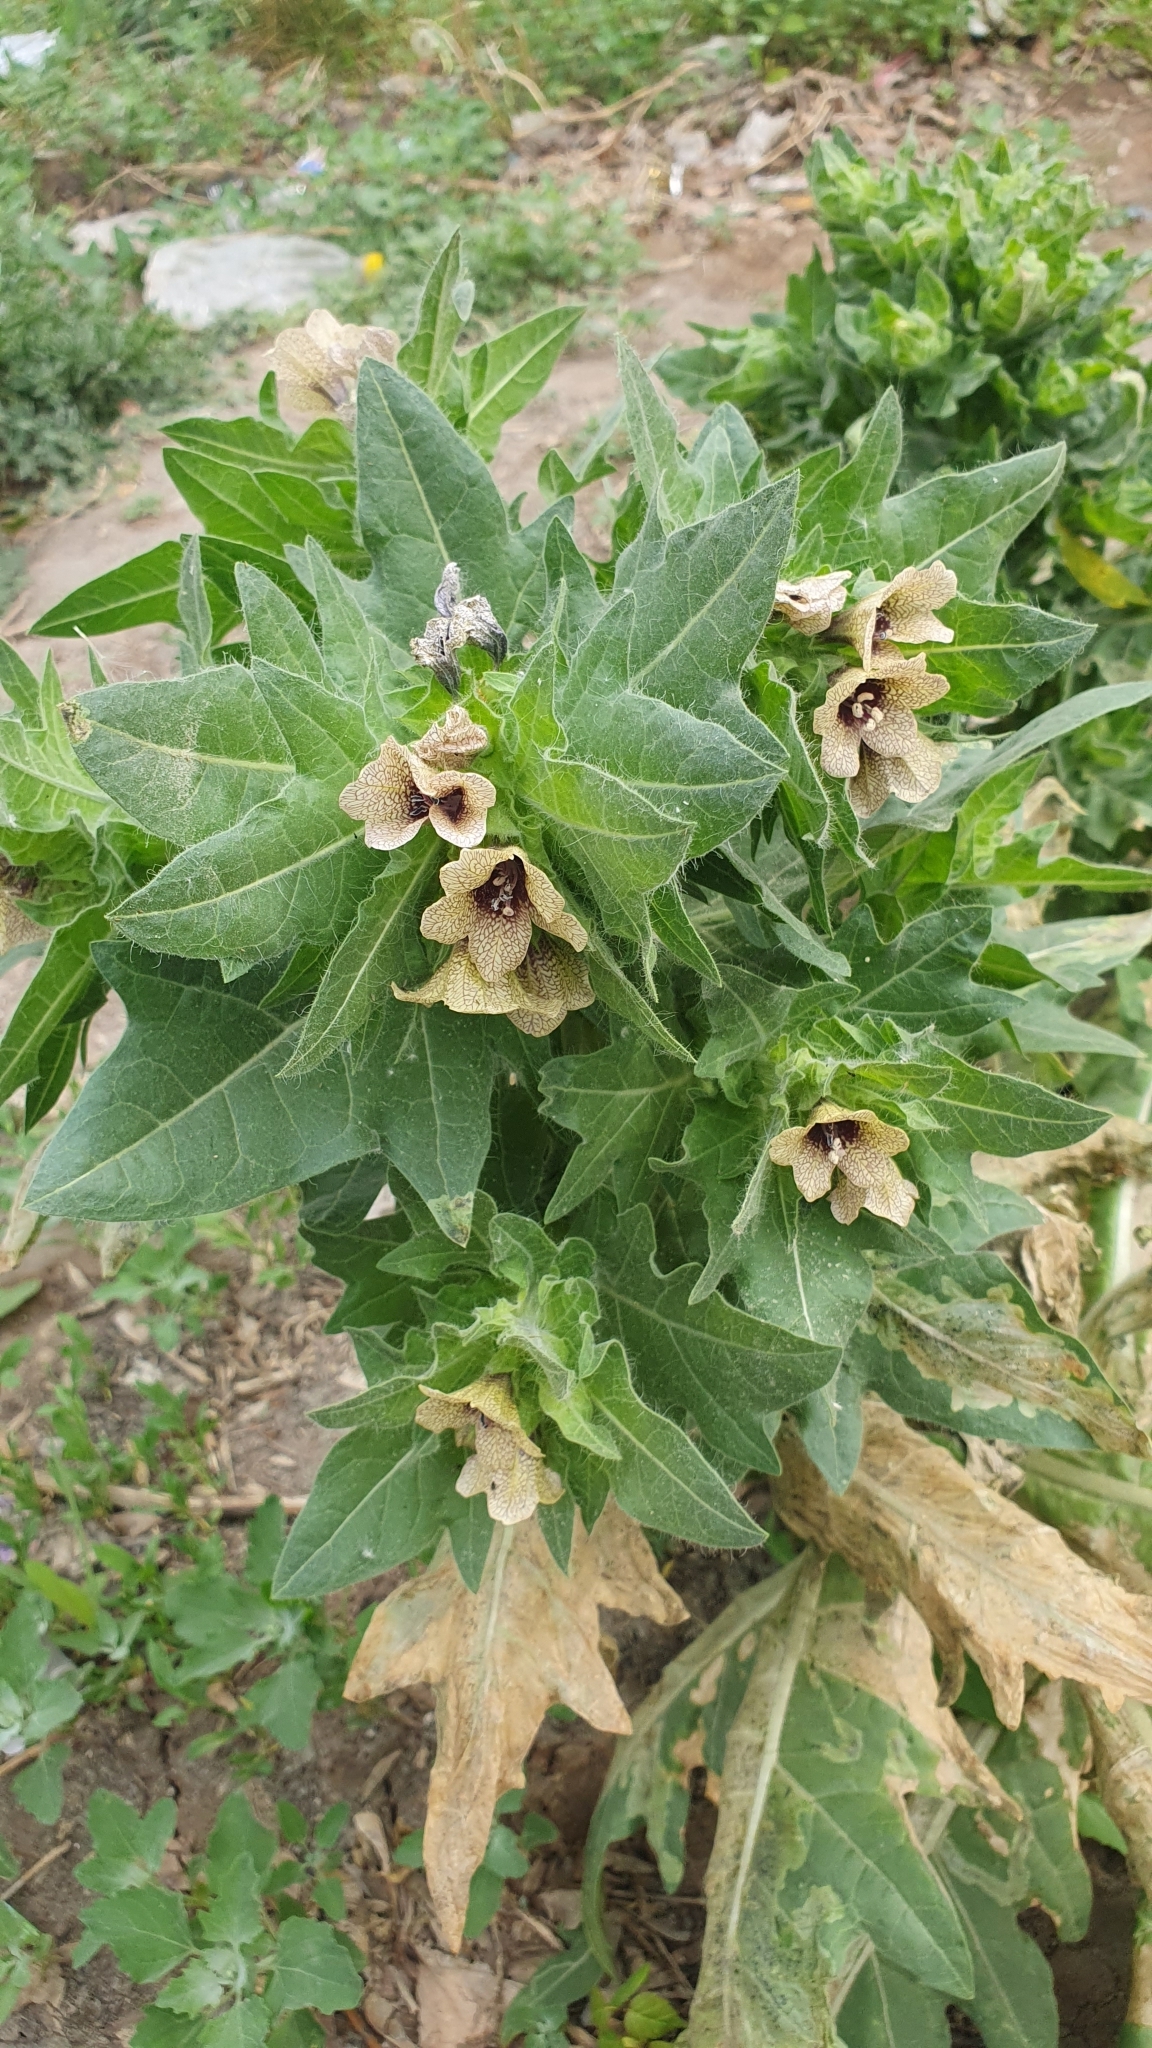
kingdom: Plantae
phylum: Tracheophyta
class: Magnoliopsida
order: Solanales
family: Solanaceae
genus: Hyoscyamus
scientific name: Hyoscyamus niger
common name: Henbane
